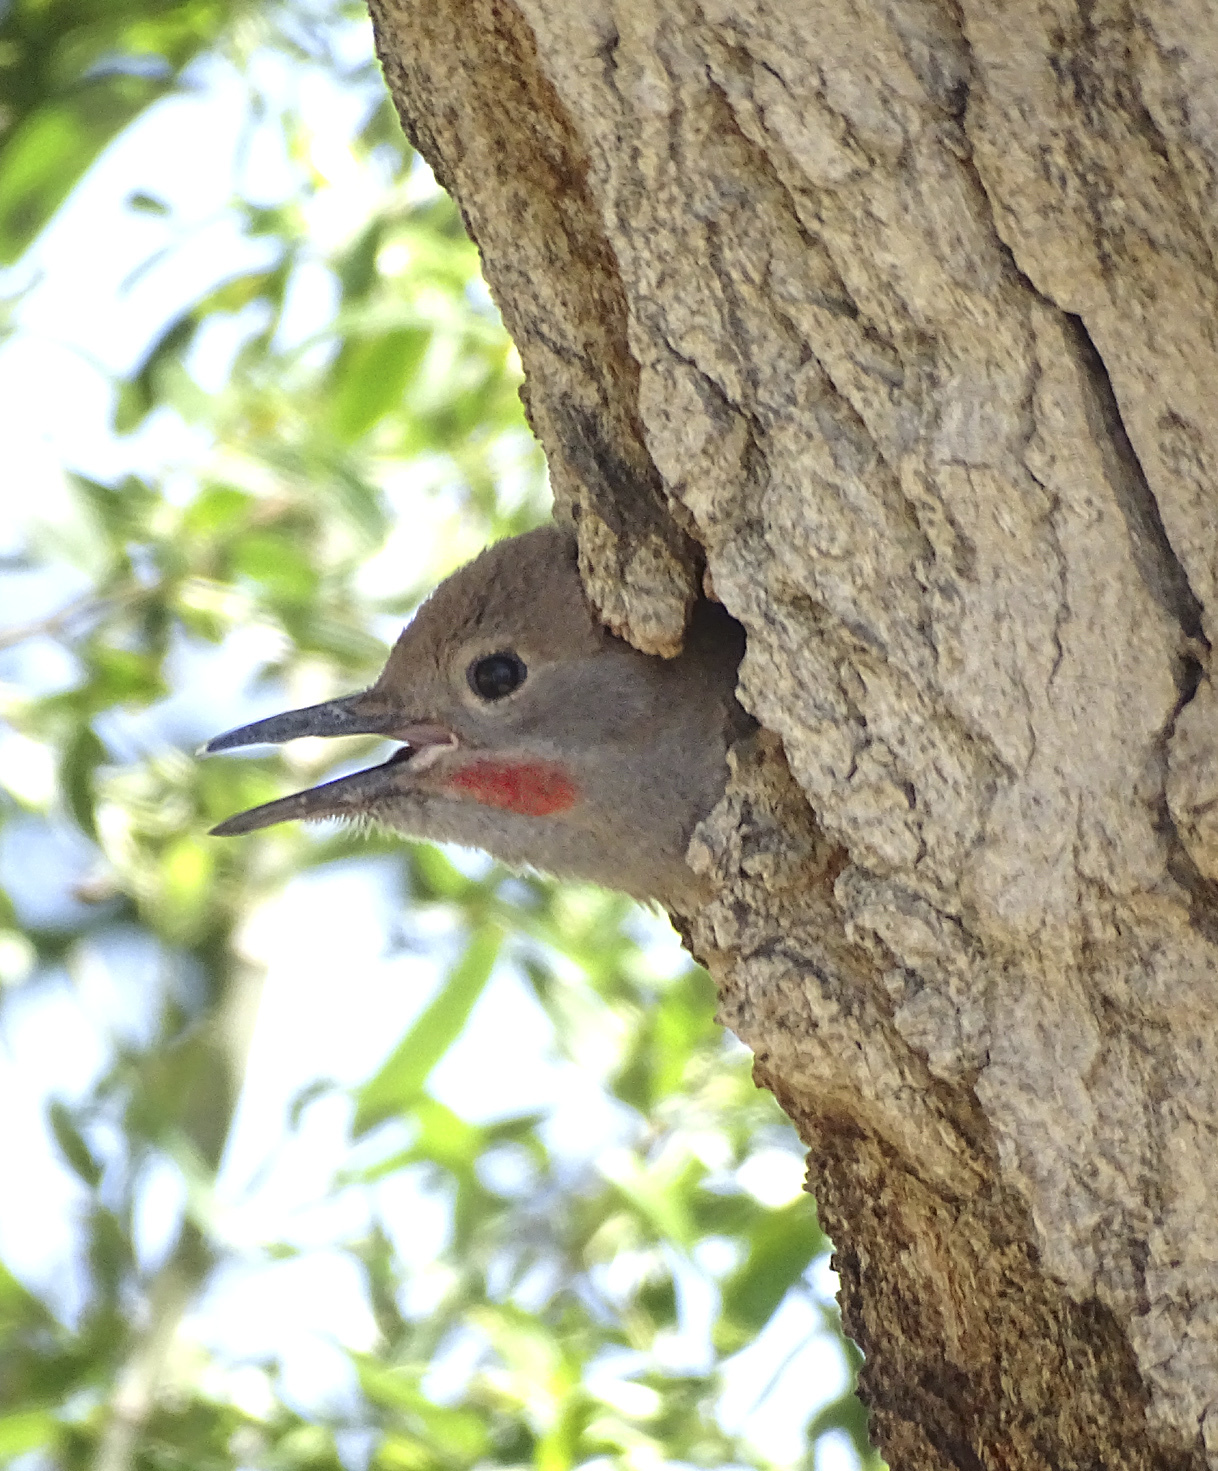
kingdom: Animalia
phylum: Chordata
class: Aves
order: Piciformes
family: Picidae
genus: Colaptes
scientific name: Colaptes auratus
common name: Northern flicker
